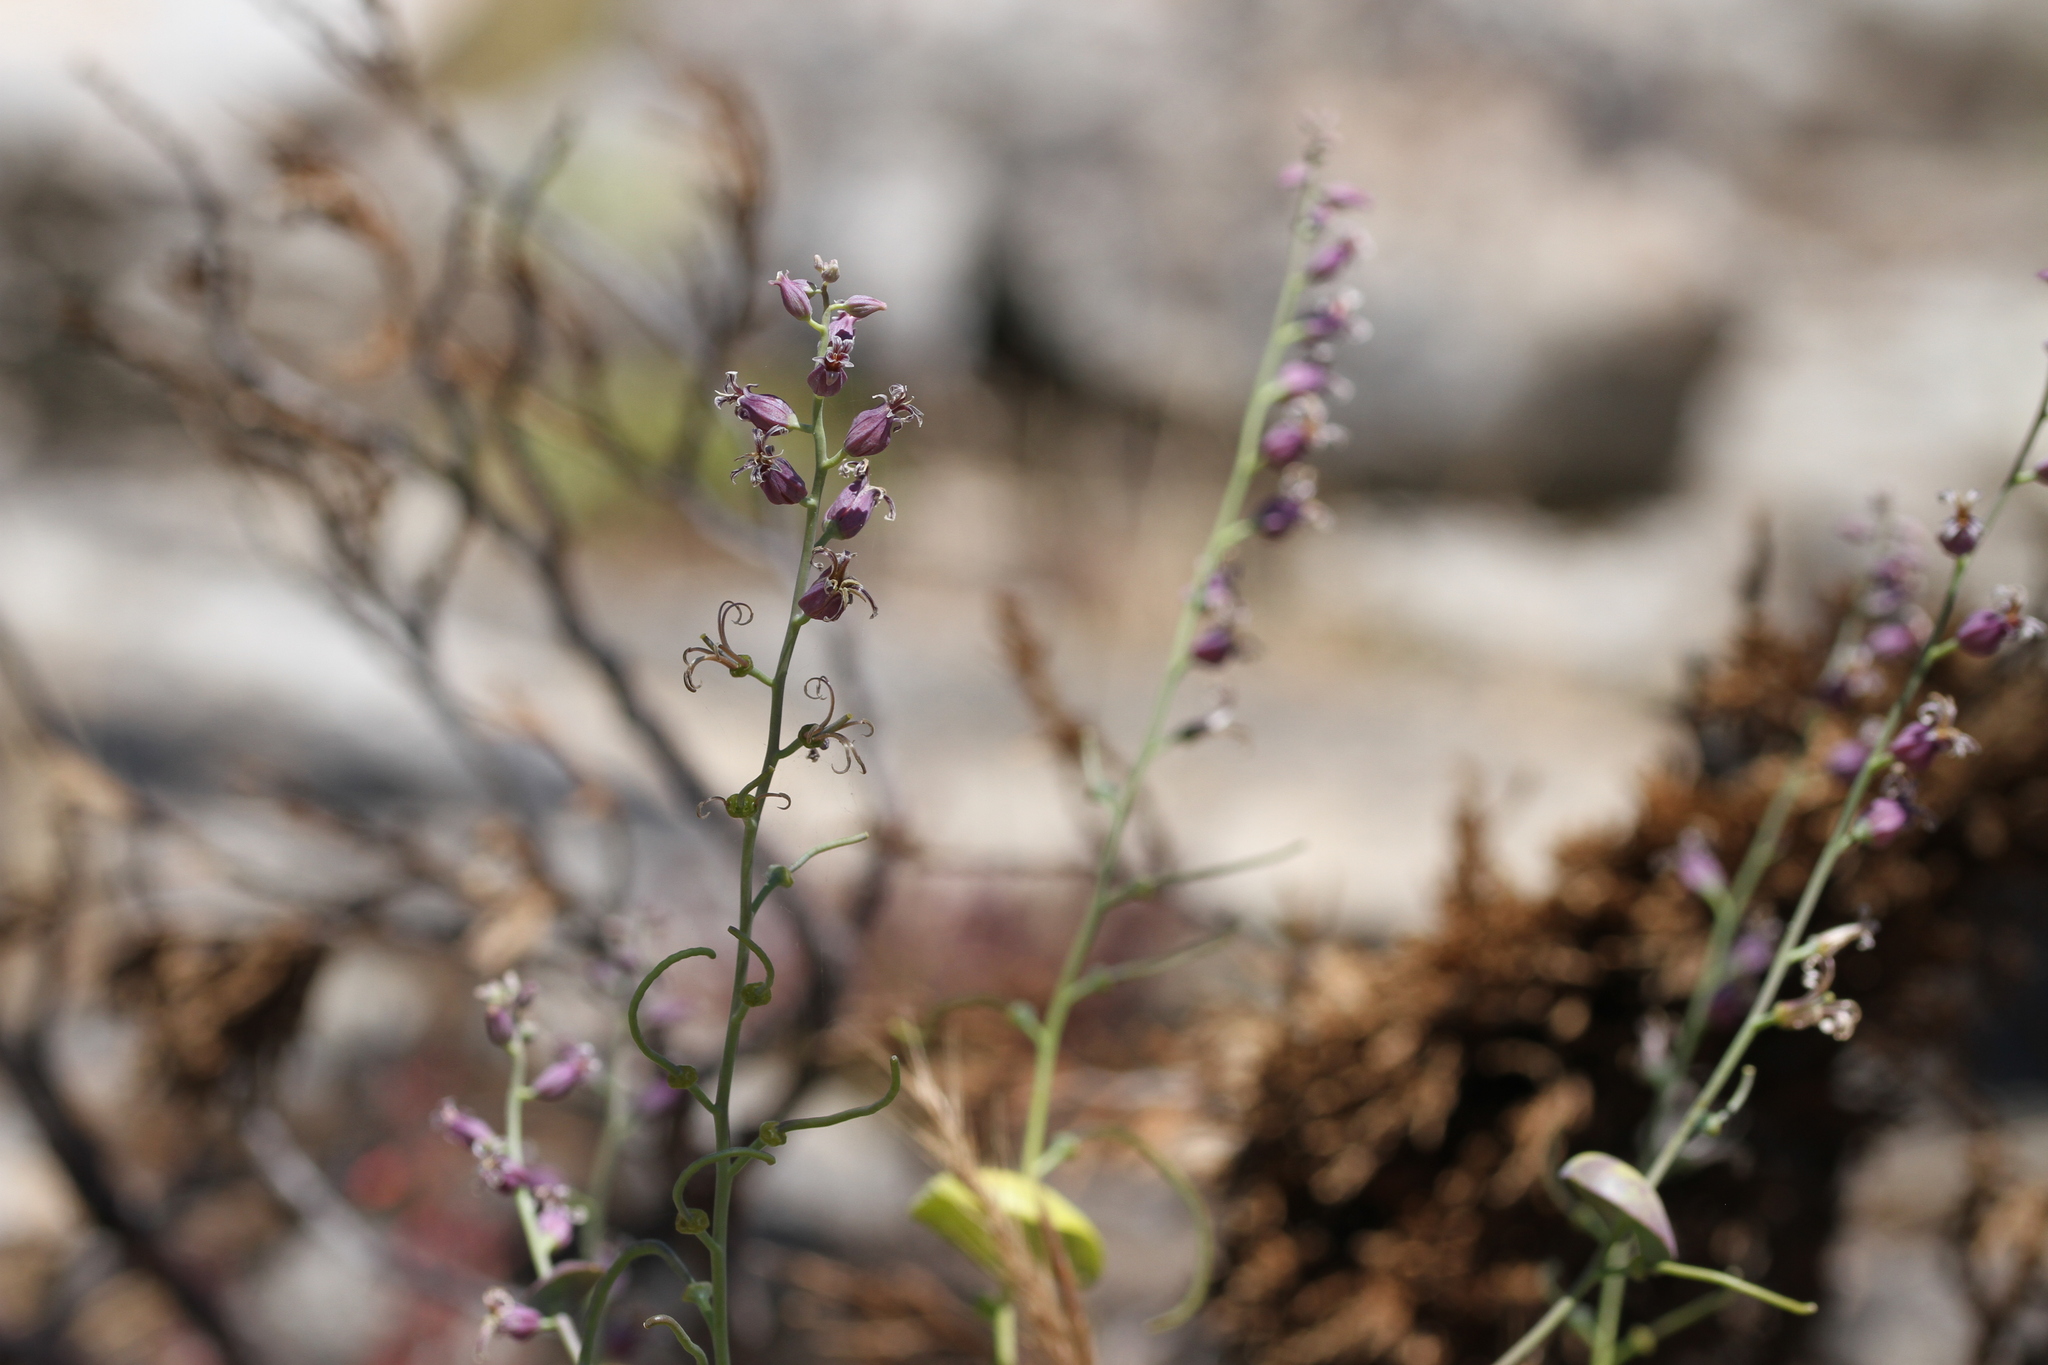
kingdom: Plantae
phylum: Tracheophyta
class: Magnoliopsida
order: Brassicales
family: Brassicaceae
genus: Streptanthus
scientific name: Streptanthus tortuosus
